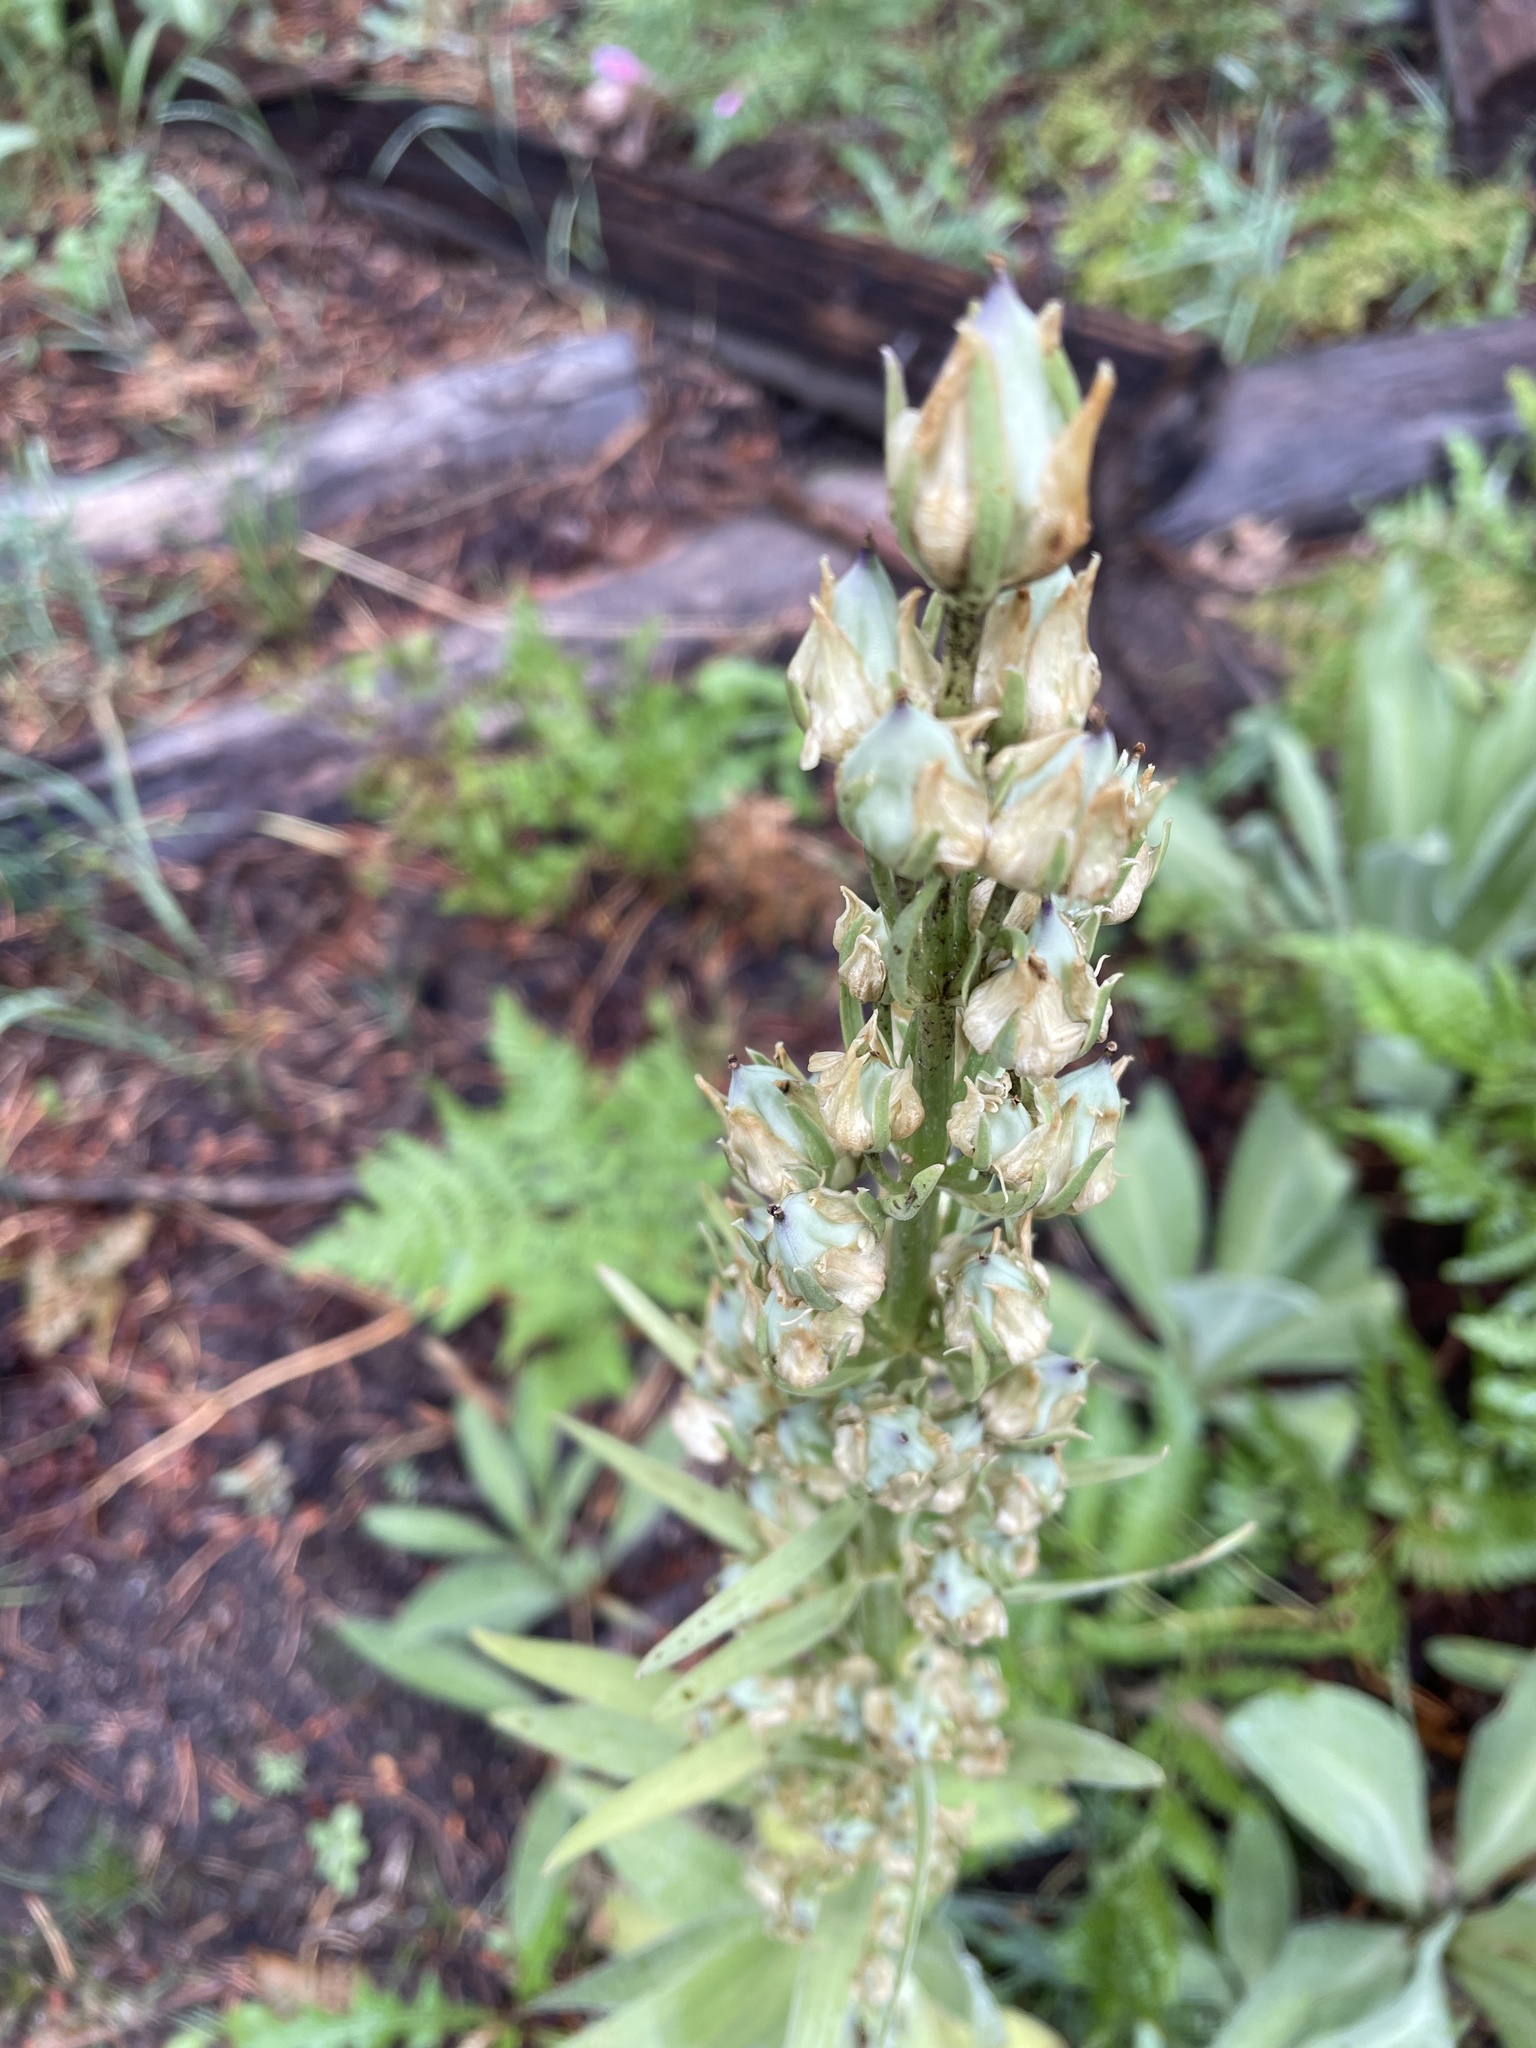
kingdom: Plantae
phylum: Tracheophyta
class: Magnoliopsida
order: Gentianales
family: Gentianaceae
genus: Frasera
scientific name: Frasera speciosa
